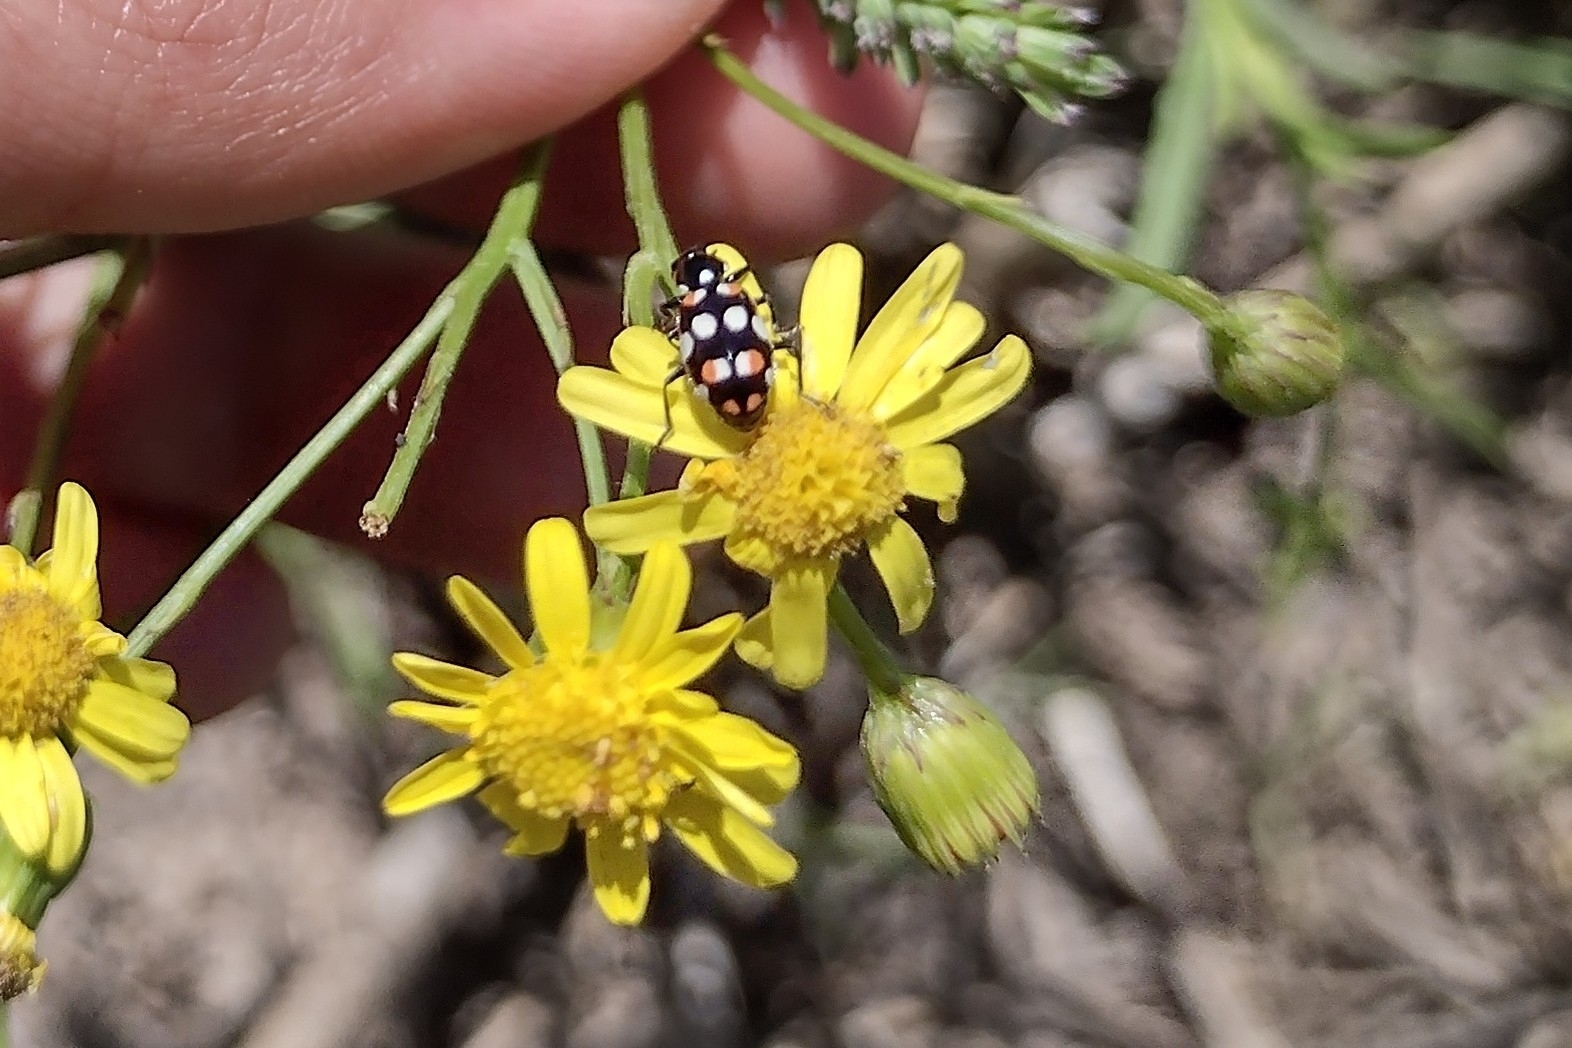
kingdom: Animalia
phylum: Arthropoda
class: Insecta
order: Coleoptera
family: Coccinellidae
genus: Eriopis
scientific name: Eriopis connexa
